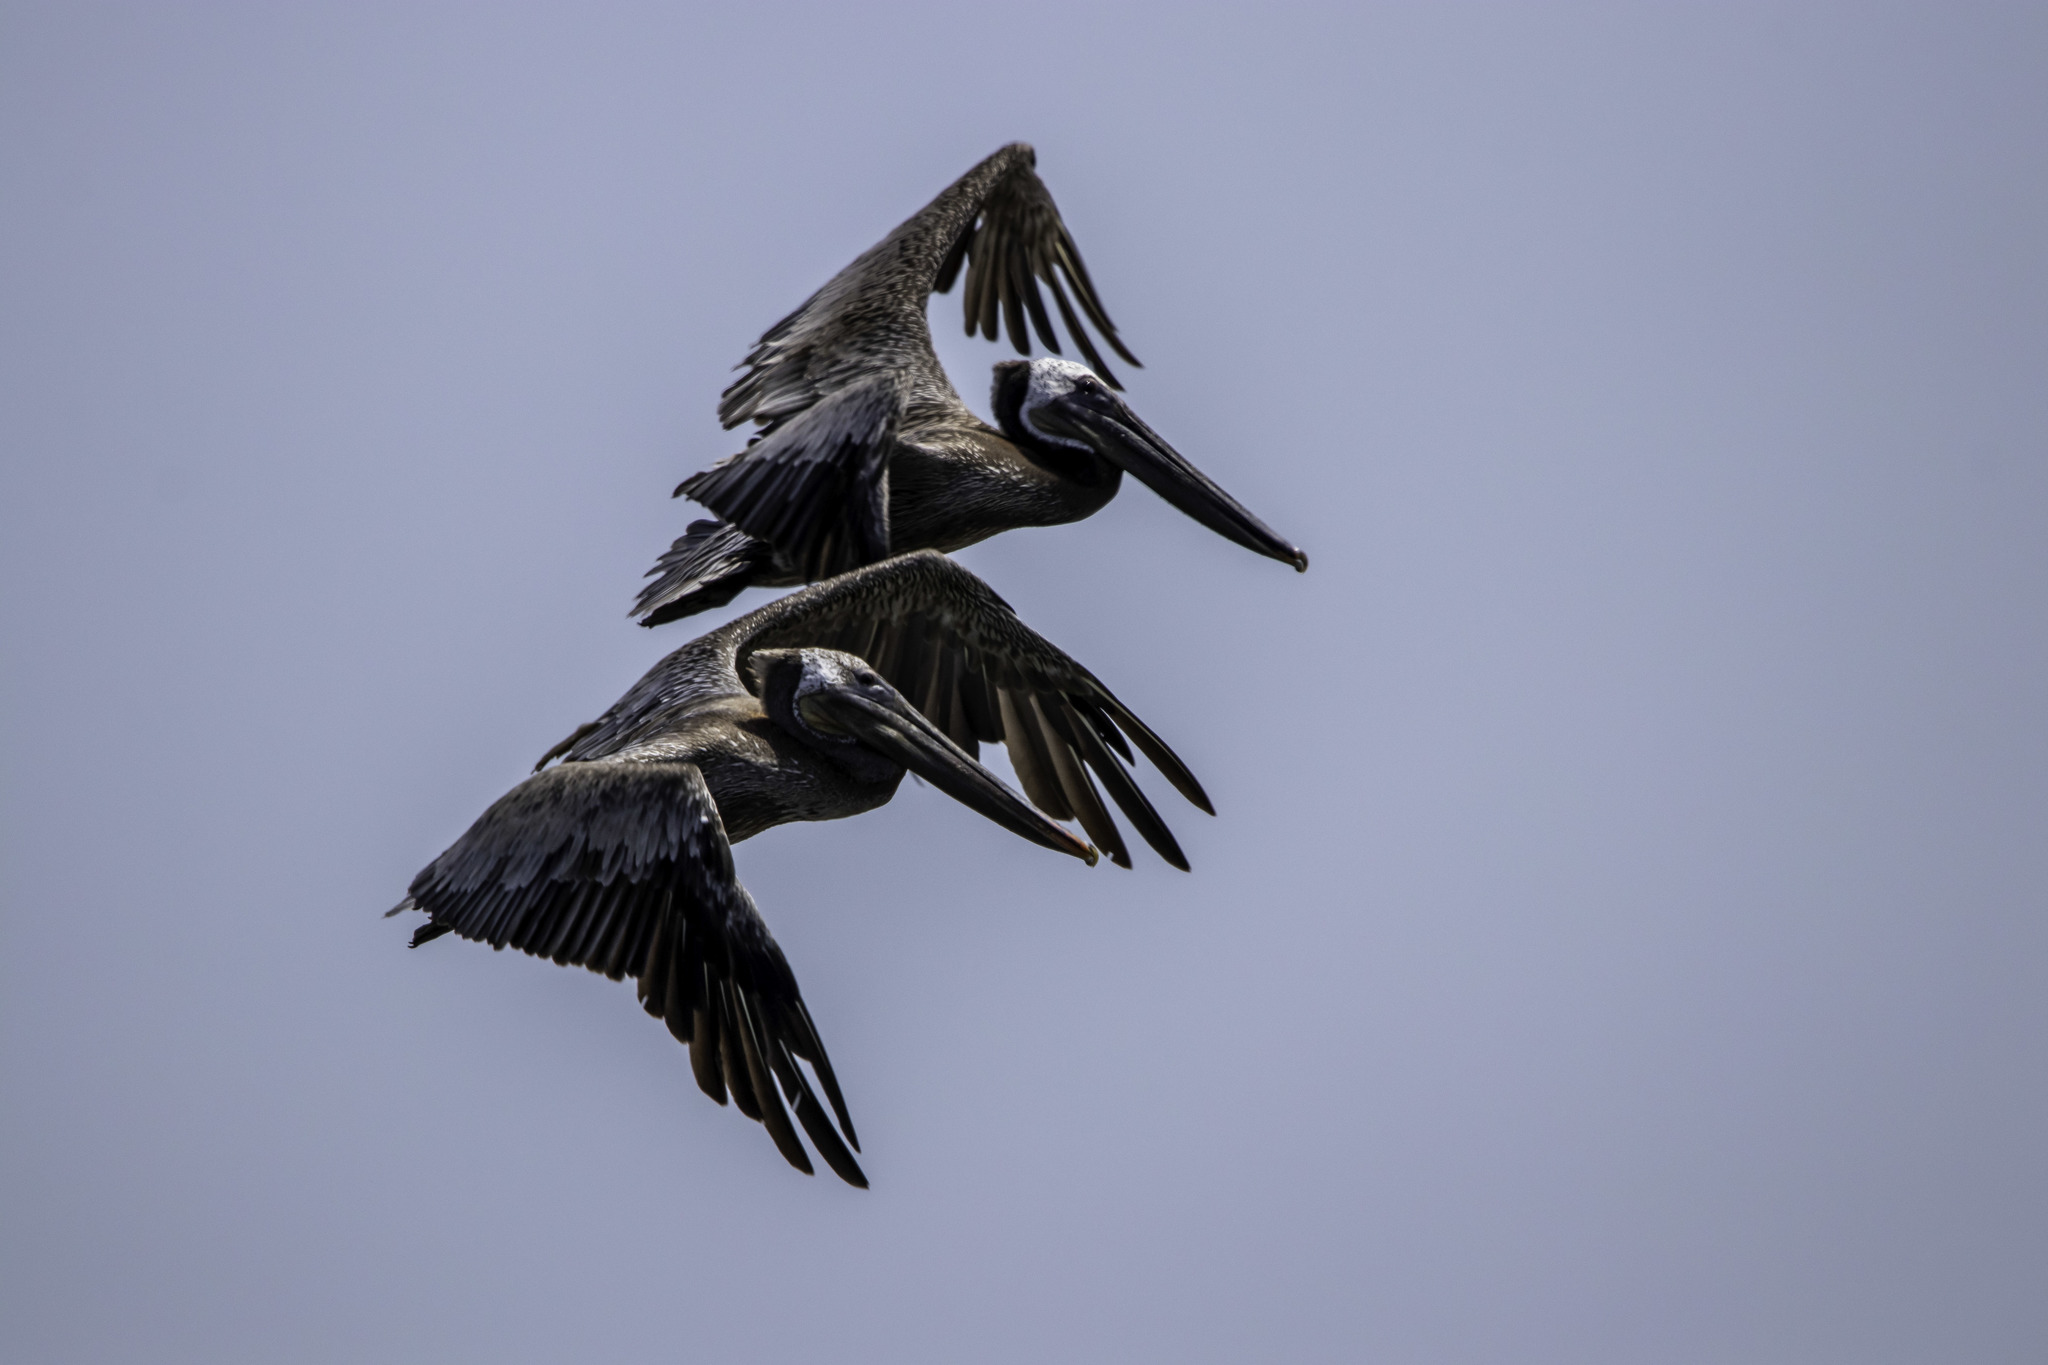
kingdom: Animalia
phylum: Chordata
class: Aves
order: Pelecaniformes
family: Pelecanidae
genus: Pelecanus
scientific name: Pelecanus occidentalis
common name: Brown pelican
